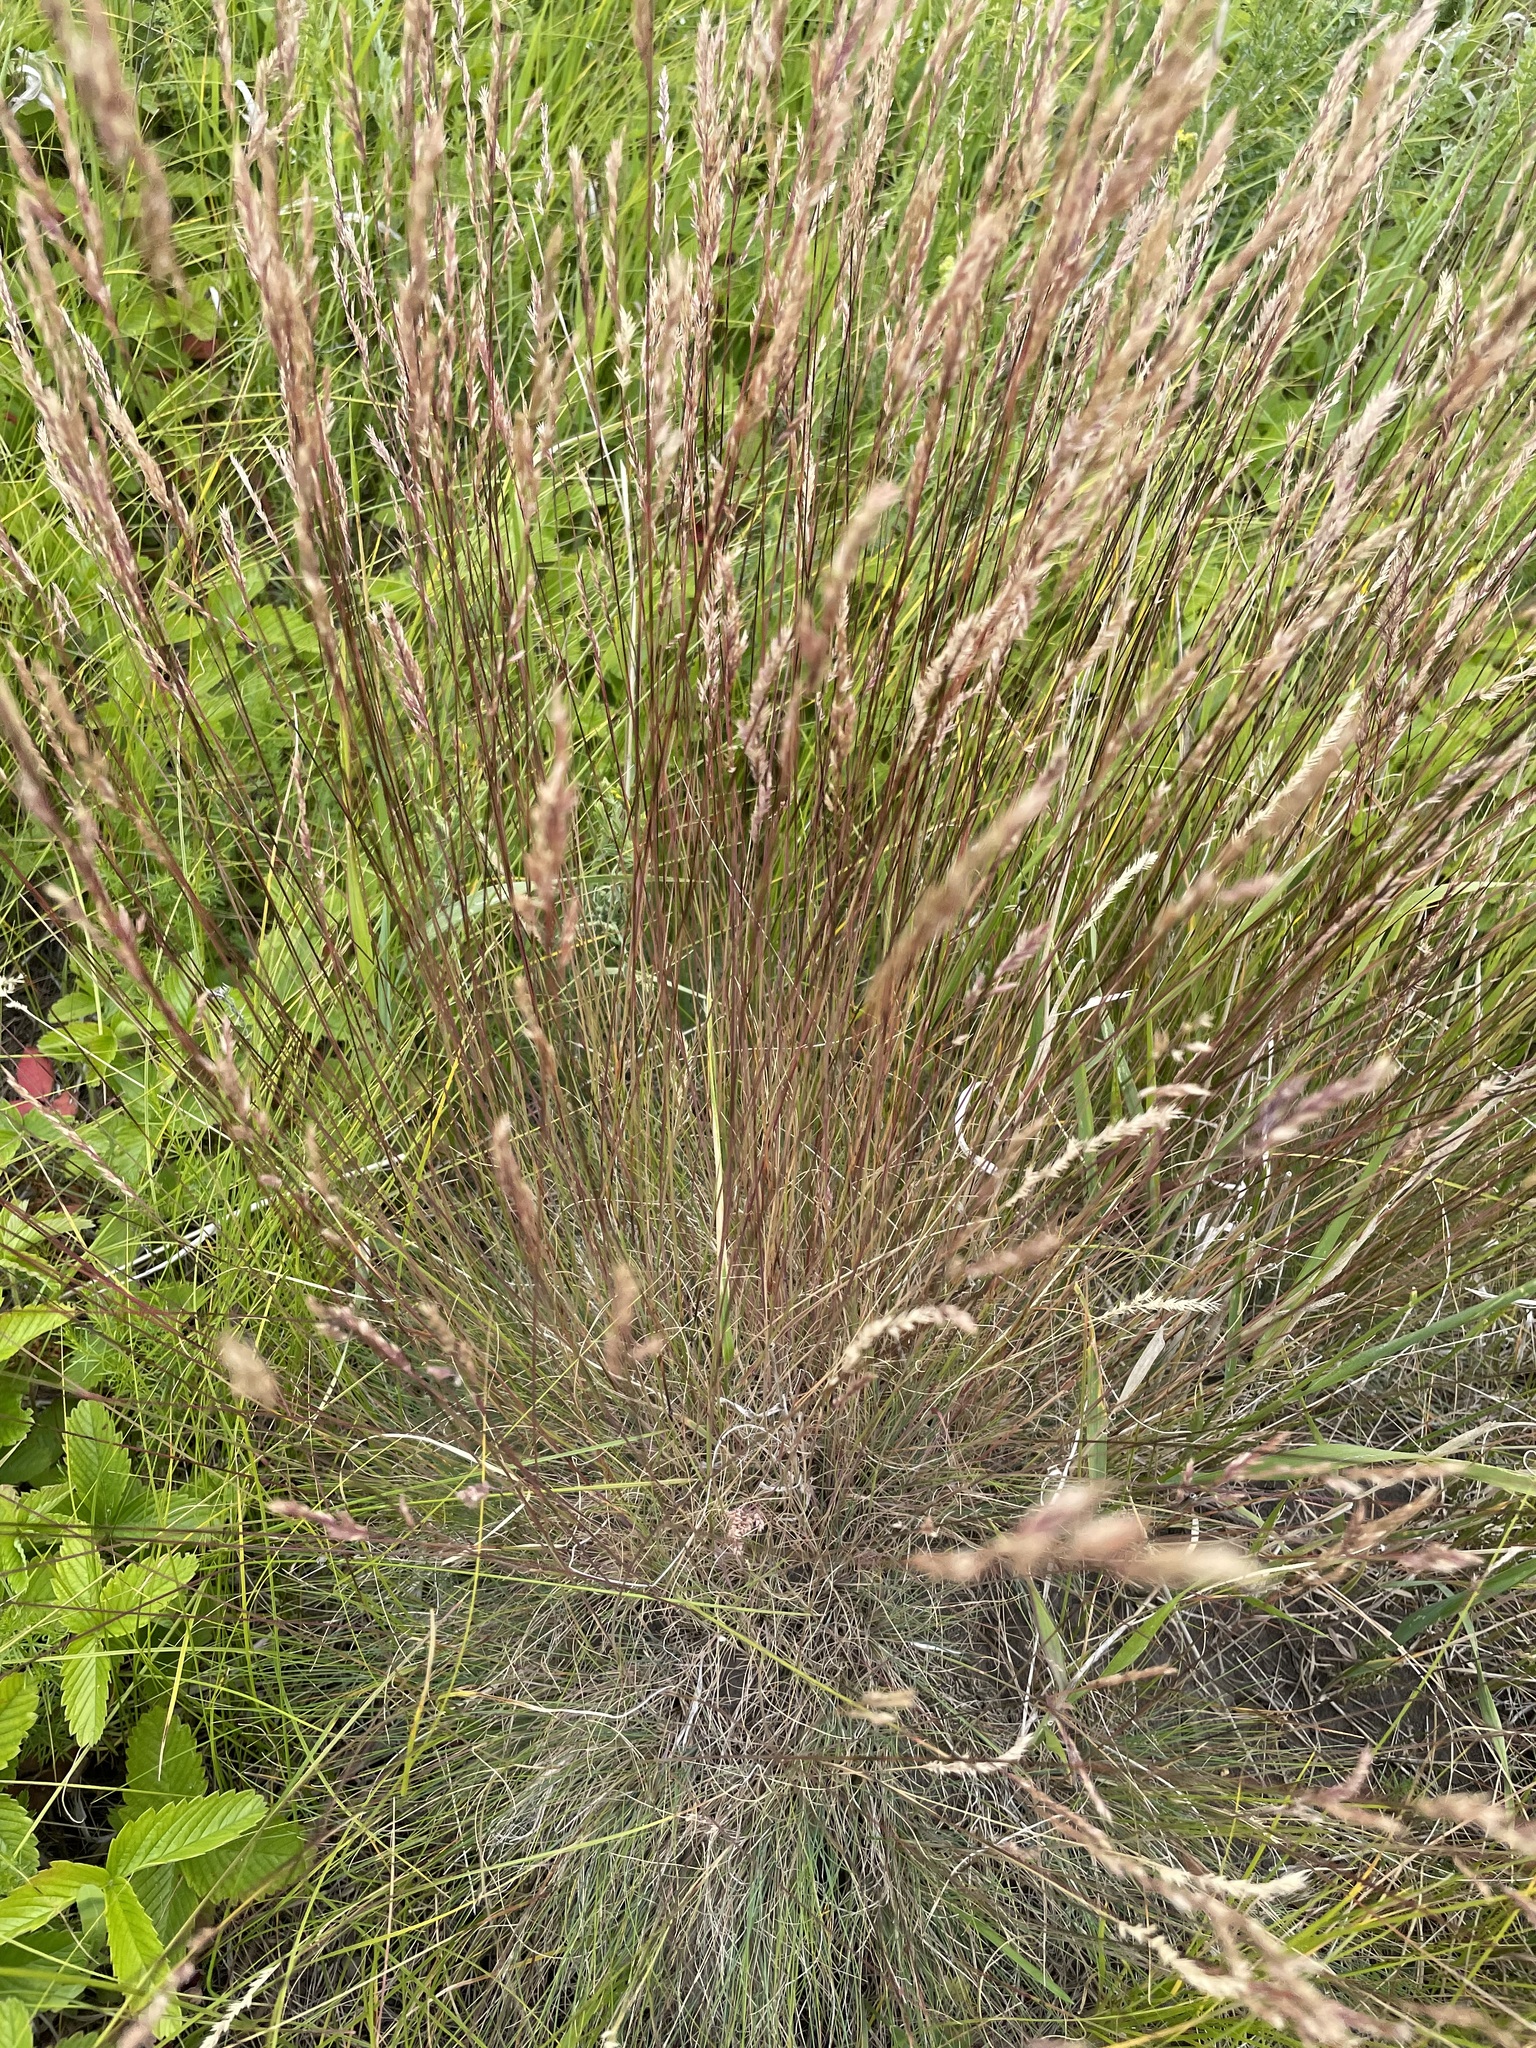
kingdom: Plantae
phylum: Tracheophyta
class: Liliopsida
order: Poales
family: Poaceae
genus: Festuca
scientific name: Festuca valesiaca
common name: Volga fescue
